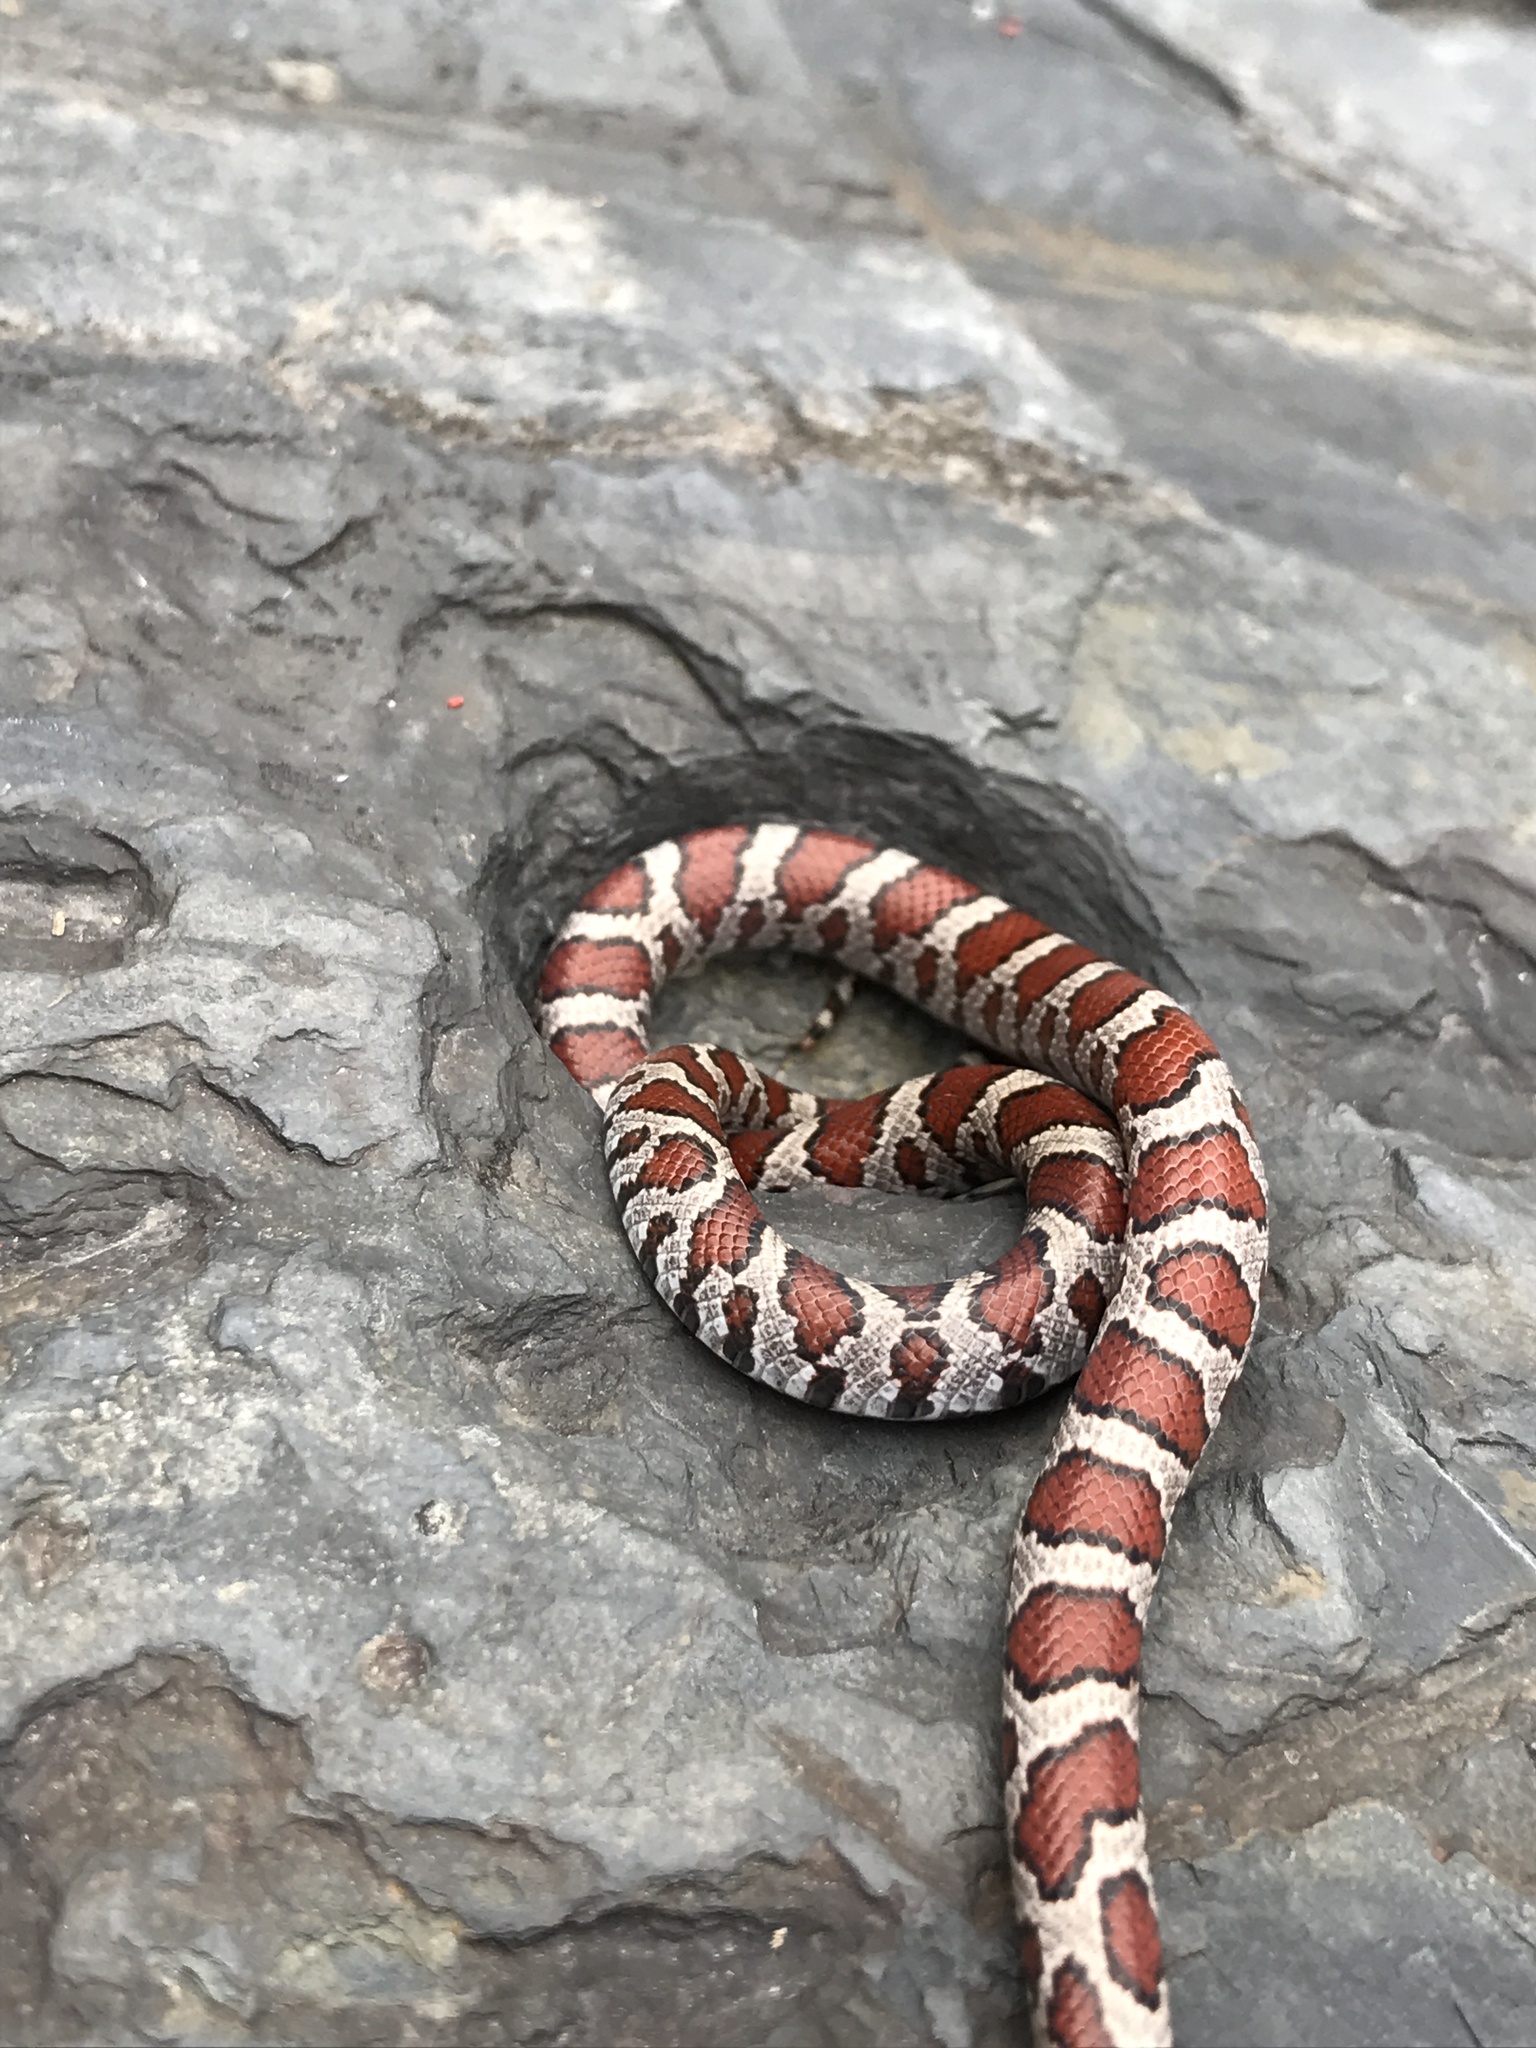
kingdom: Animalia
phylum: Chordata
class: Squamata
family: Colubridae
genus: Lampropeltis
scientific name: Lampropeltis triangulum
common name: Eastern milksnake
